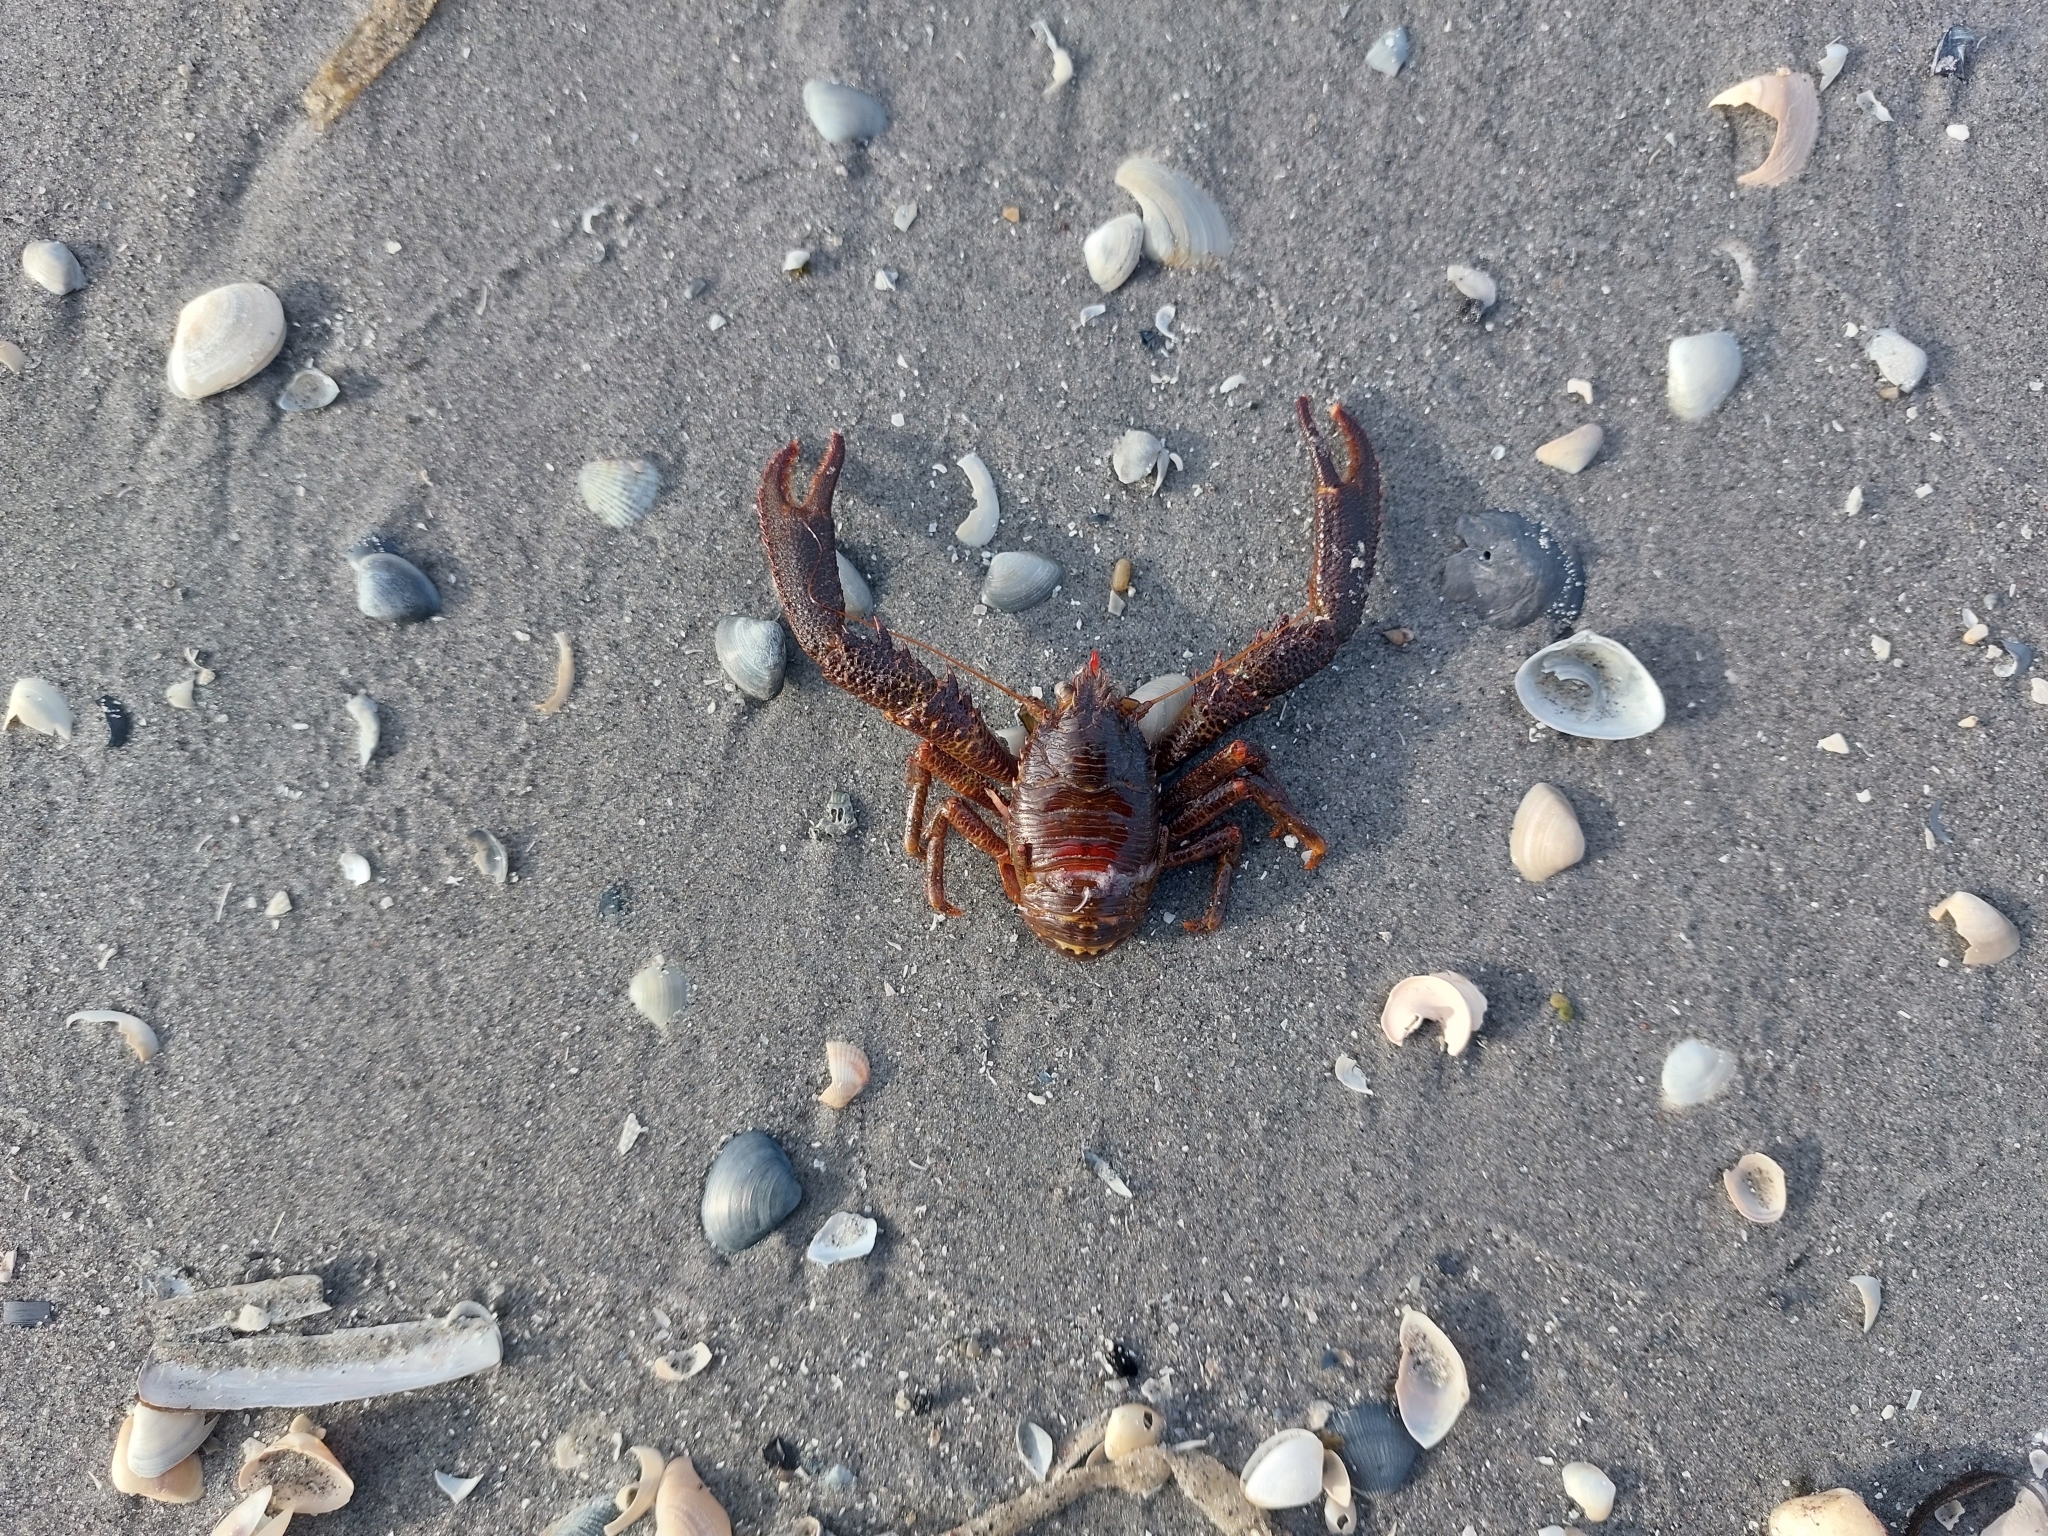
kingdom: Animalia
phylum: Arthropoda
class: Malacostraca
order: Decapoda
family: Galatheidae
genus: Galathea
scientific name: Galathea squamifera
